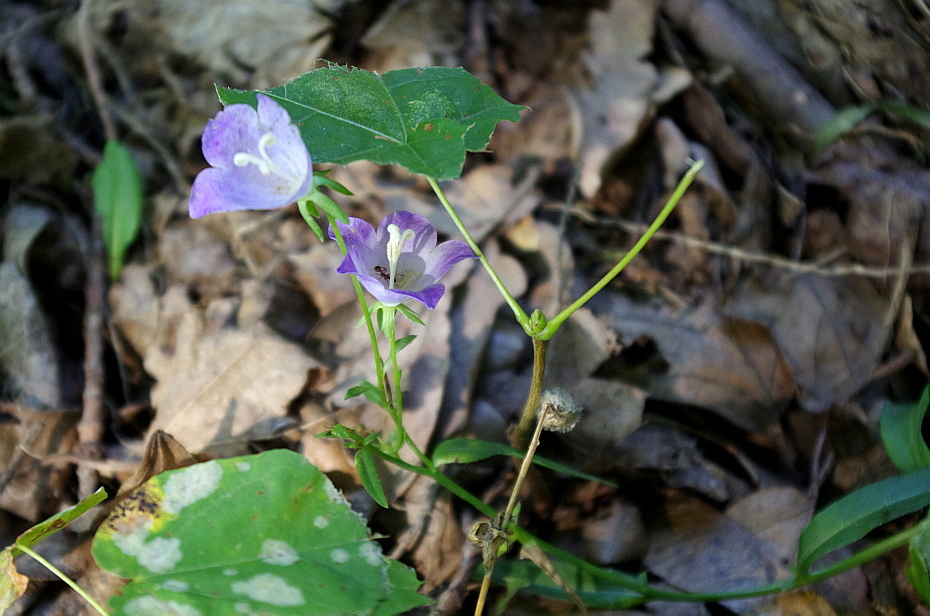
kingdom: Plantae
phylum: Tracheophyta
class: Magnoliopsida
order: Asterales
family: Campanulaceae
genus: Campanula
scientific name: Campanula persicifolia
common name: Peach-leaved bellflower
